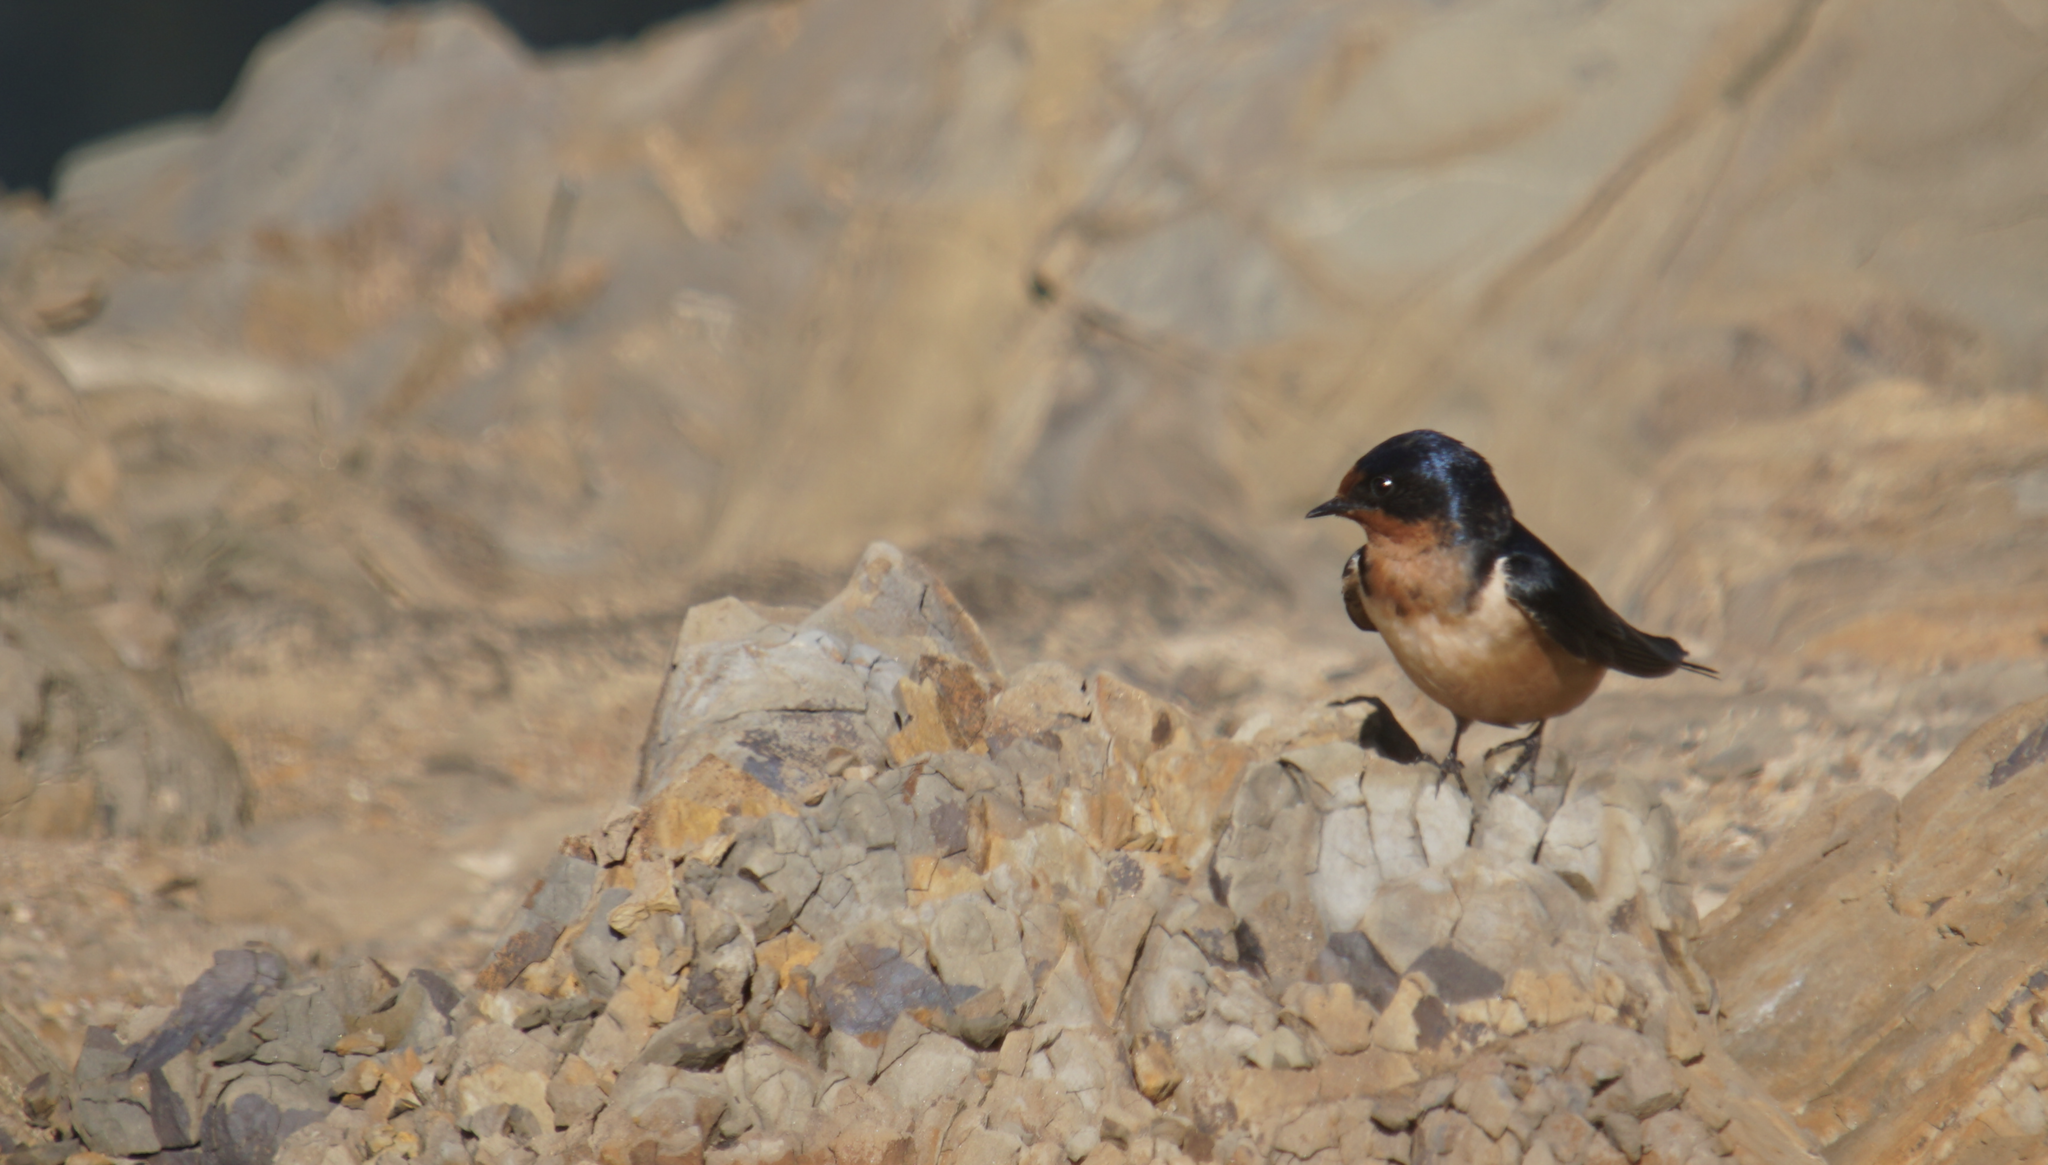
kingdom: Animalia
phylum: Chordata
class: Aves
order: Passeriformes
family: Hirundinidae
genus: Hirundo
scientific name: Hirundo rustica
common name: Barn swallow
